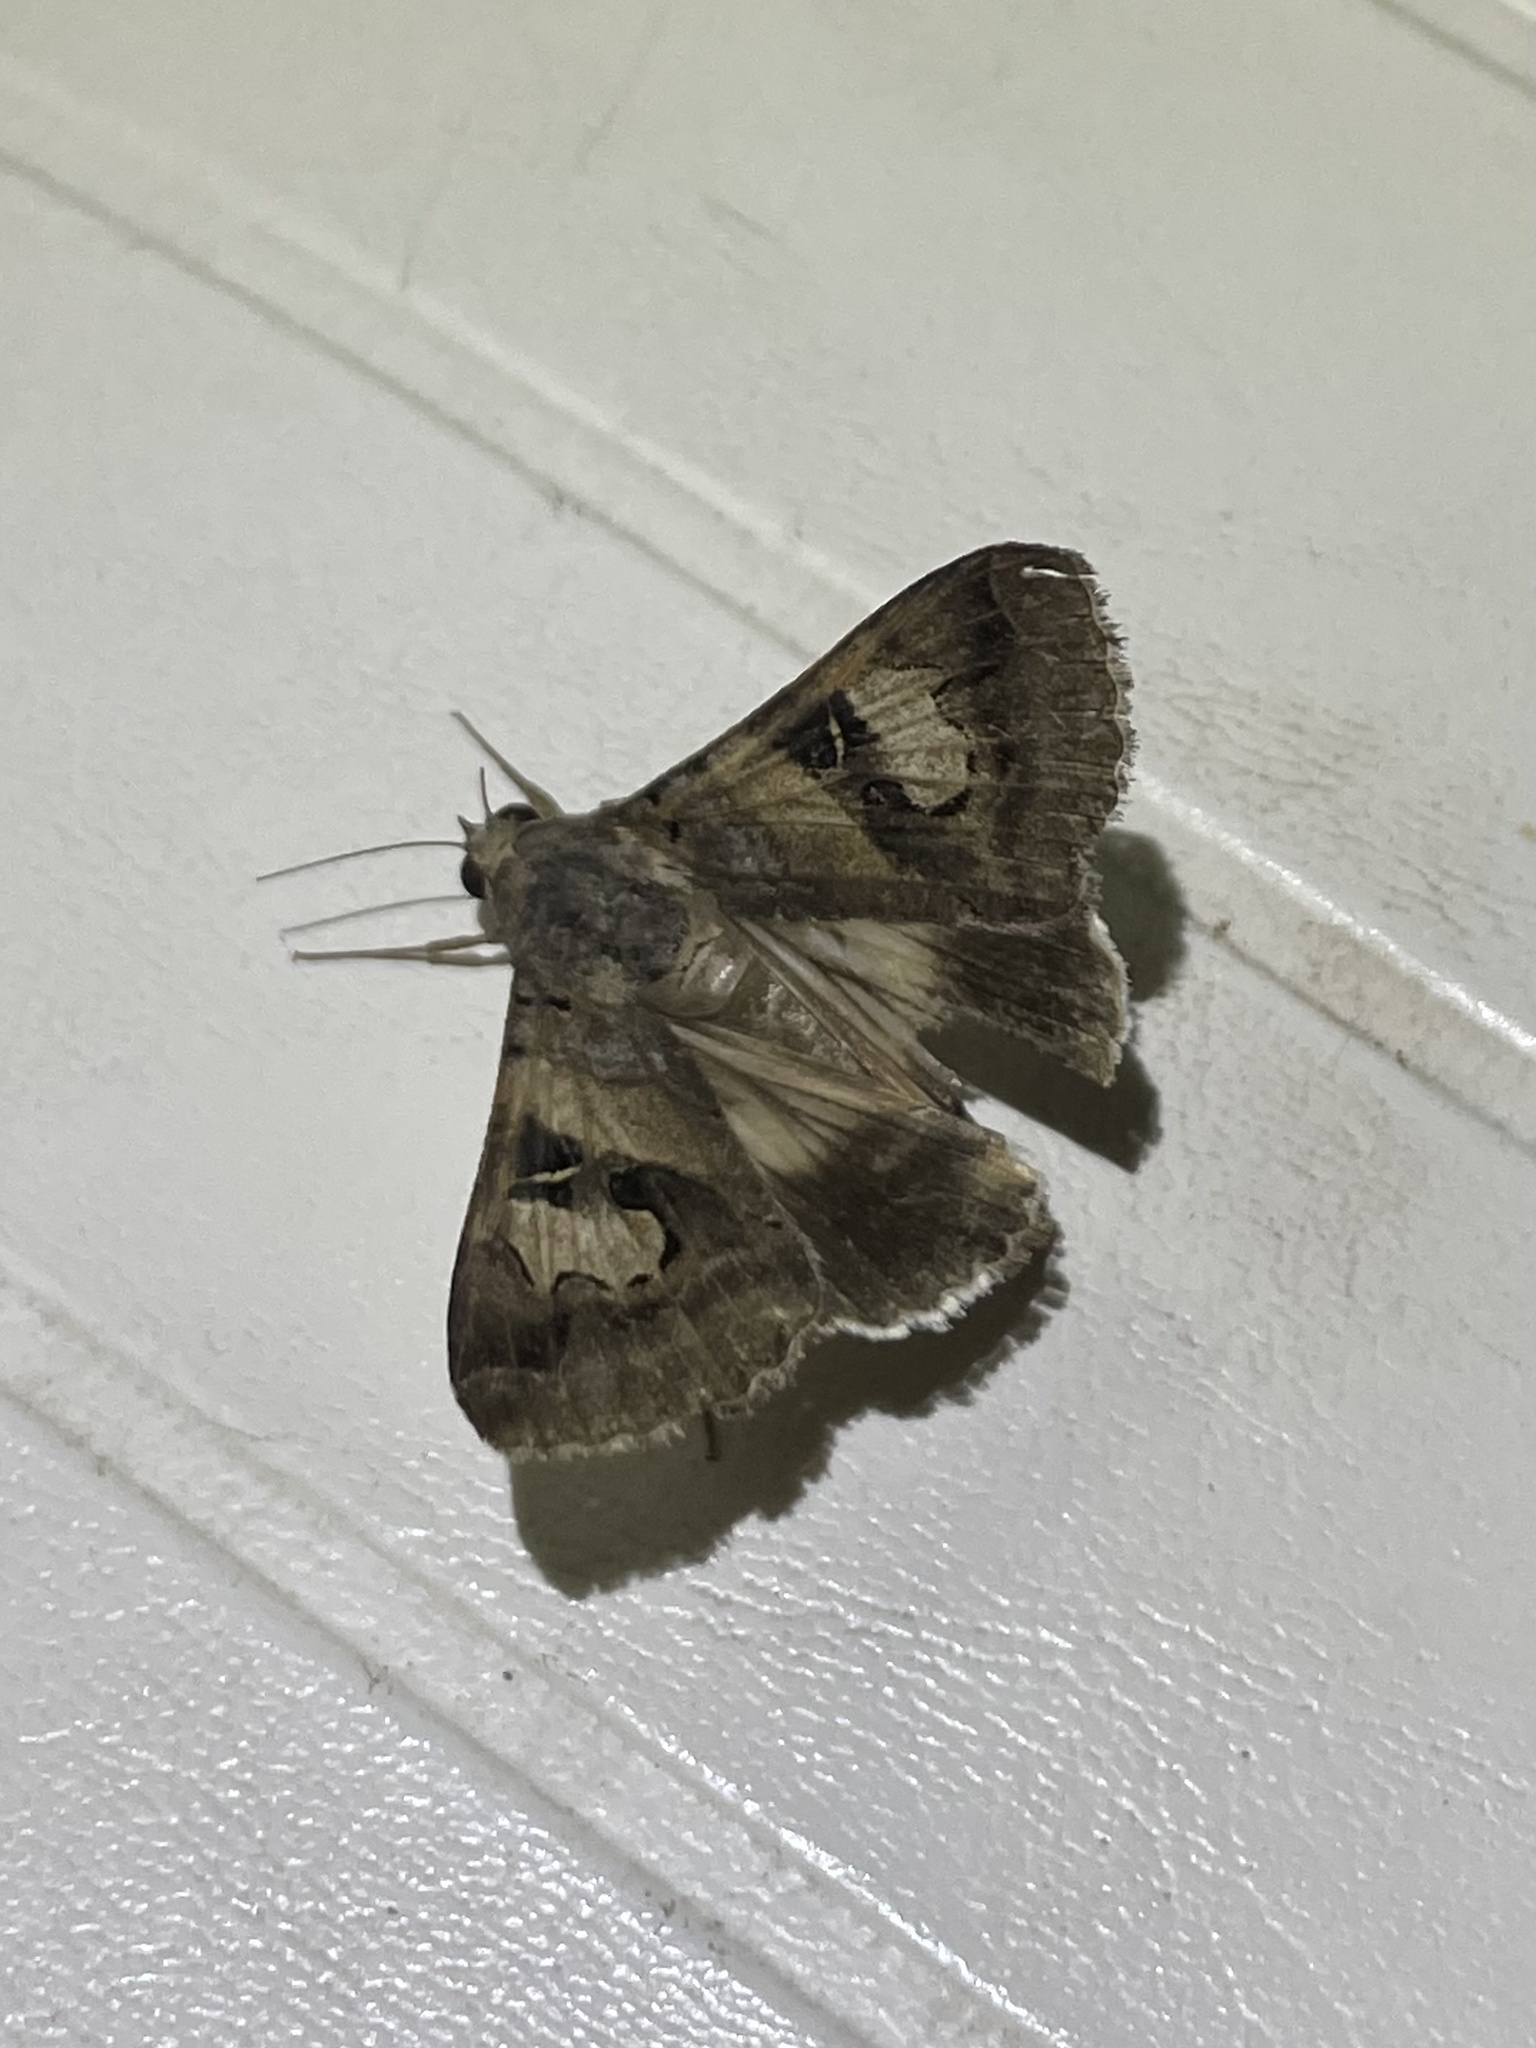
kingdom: Animalia
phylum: Arthropoda
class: Insecta
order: Lepidoptera
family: Erebidae
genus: Melipotis
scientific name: Melipotis indomita
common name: Moth
